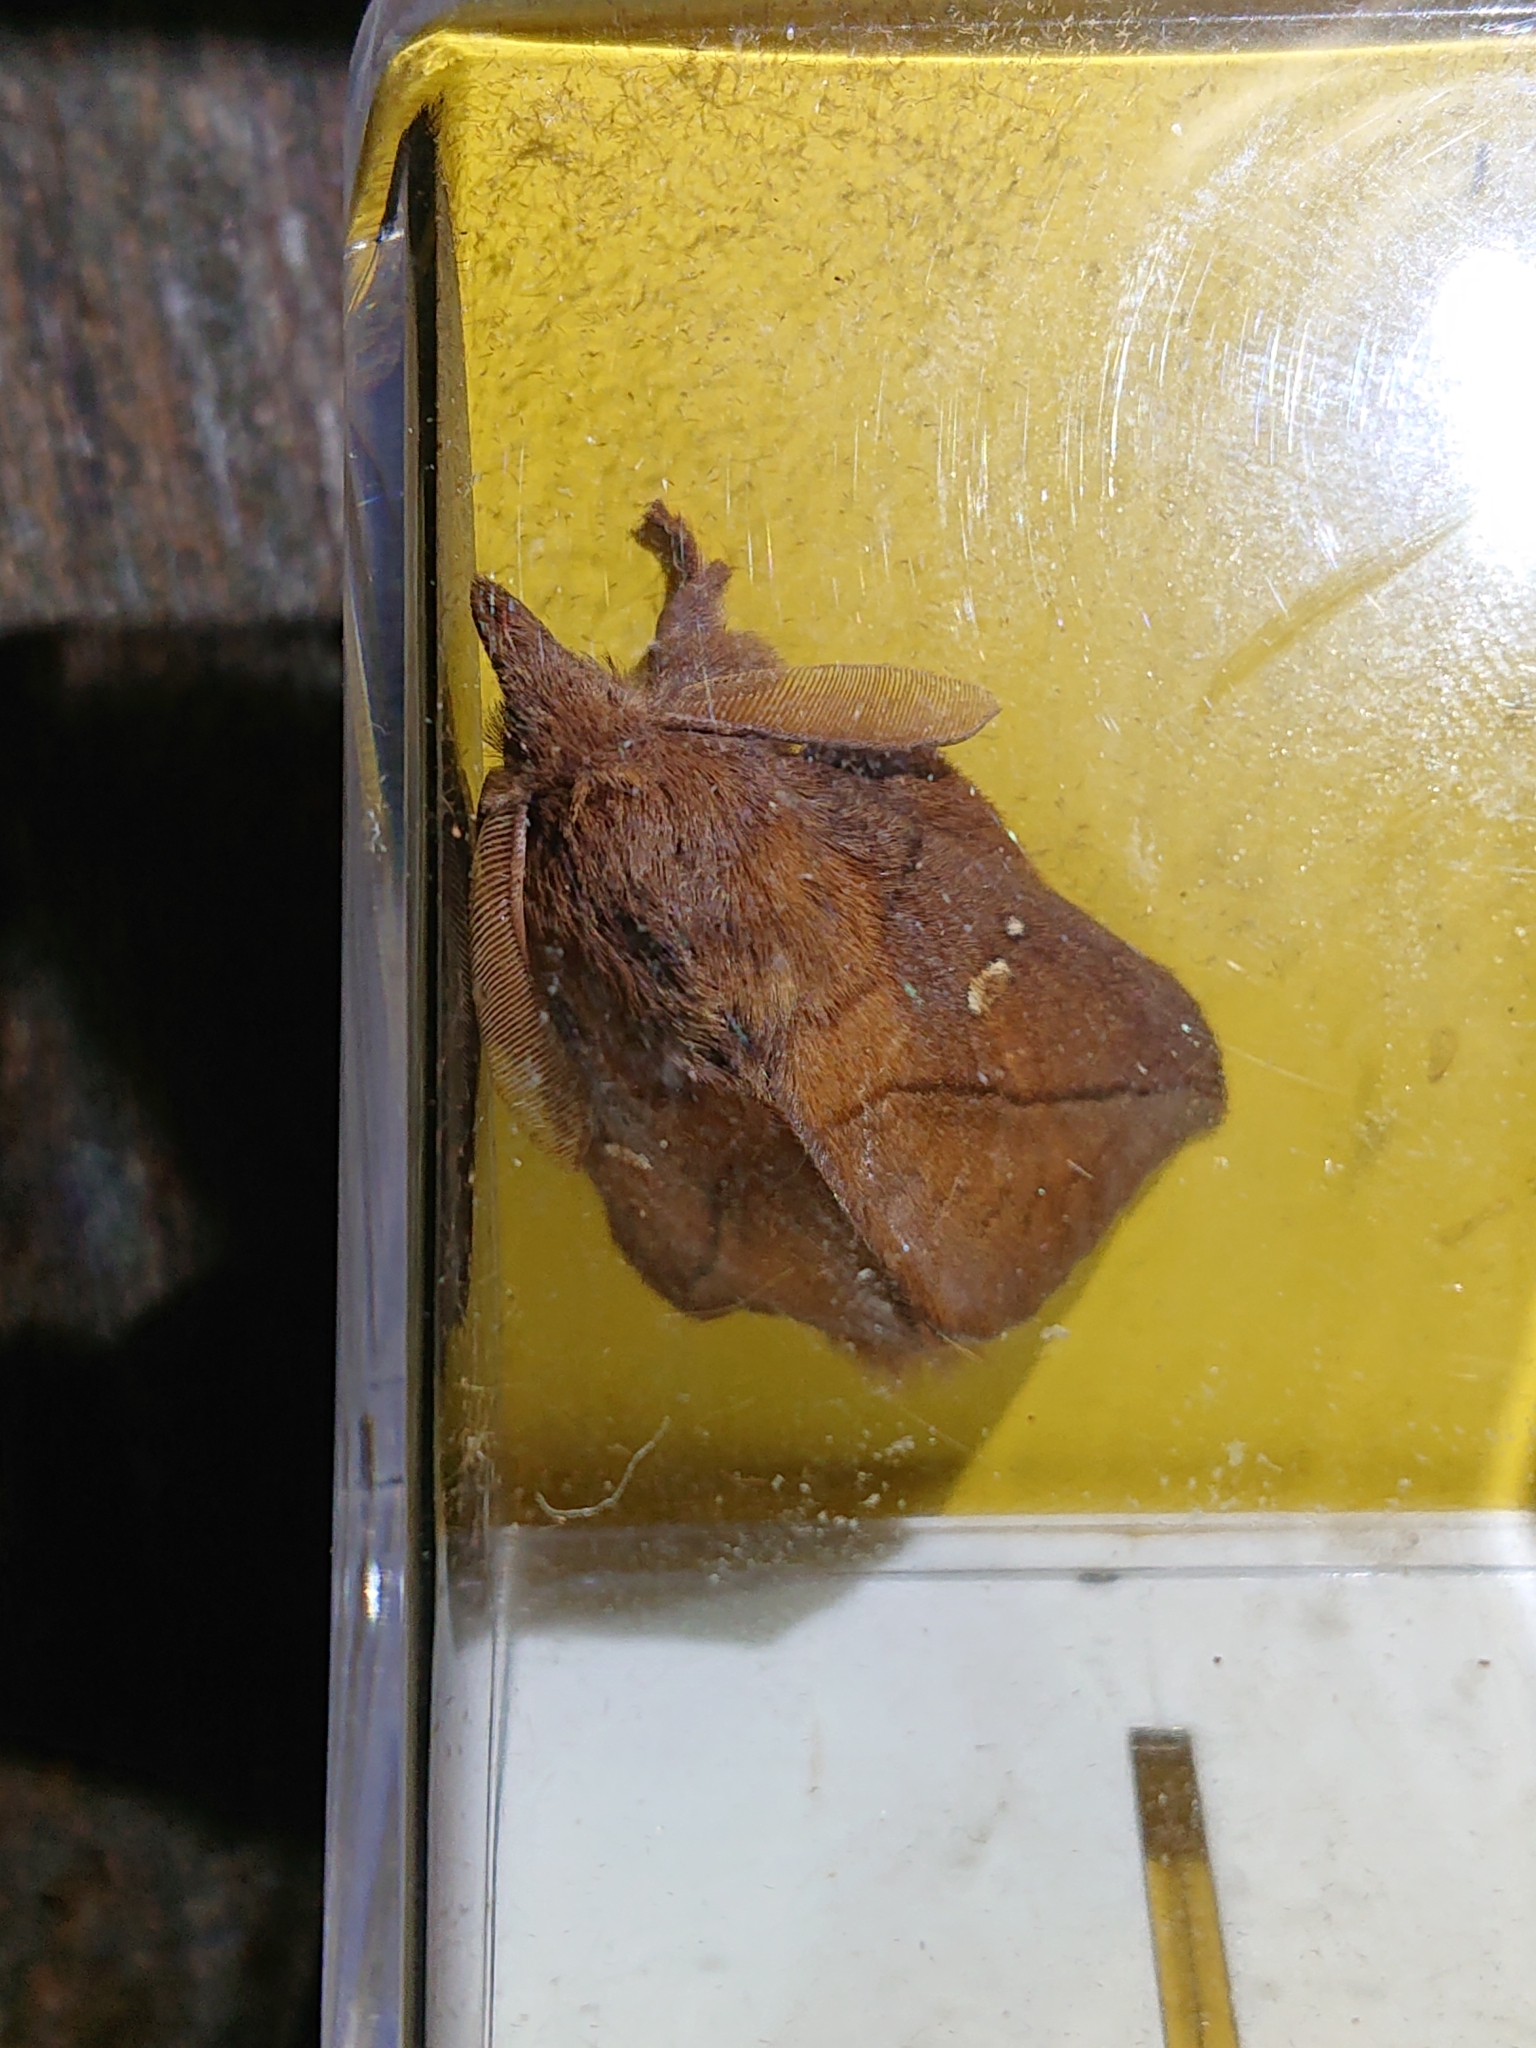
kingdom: Animalia
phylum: Arthropoda
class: Insecta
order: Lepidoptera
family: Lasiocampidae
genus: Euthrix
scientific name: Euthrix potatoria
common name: Drinker
